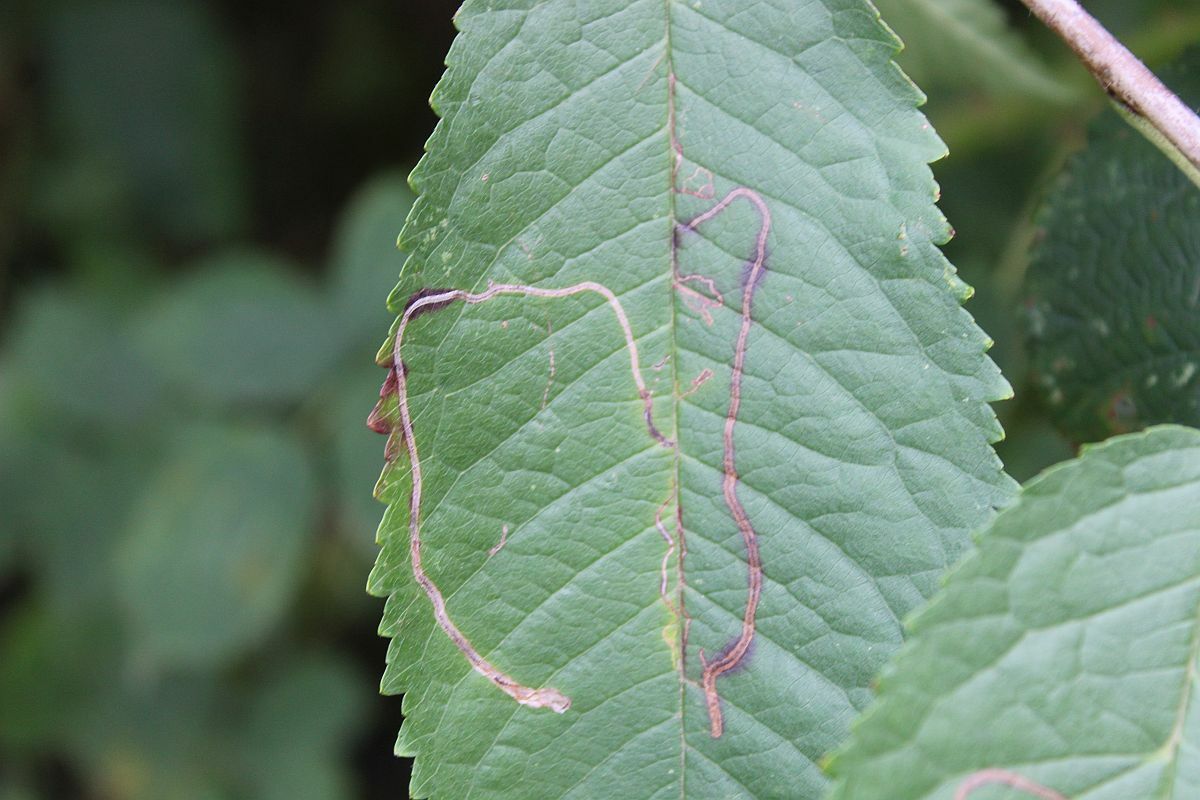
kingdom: Animalia
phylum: Arthropoda
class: Insecta
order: Lepidoptera
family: Lyonetiidae
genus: Lyonetia
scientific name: Lyonetia clerkella
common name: Apple leaf miner
